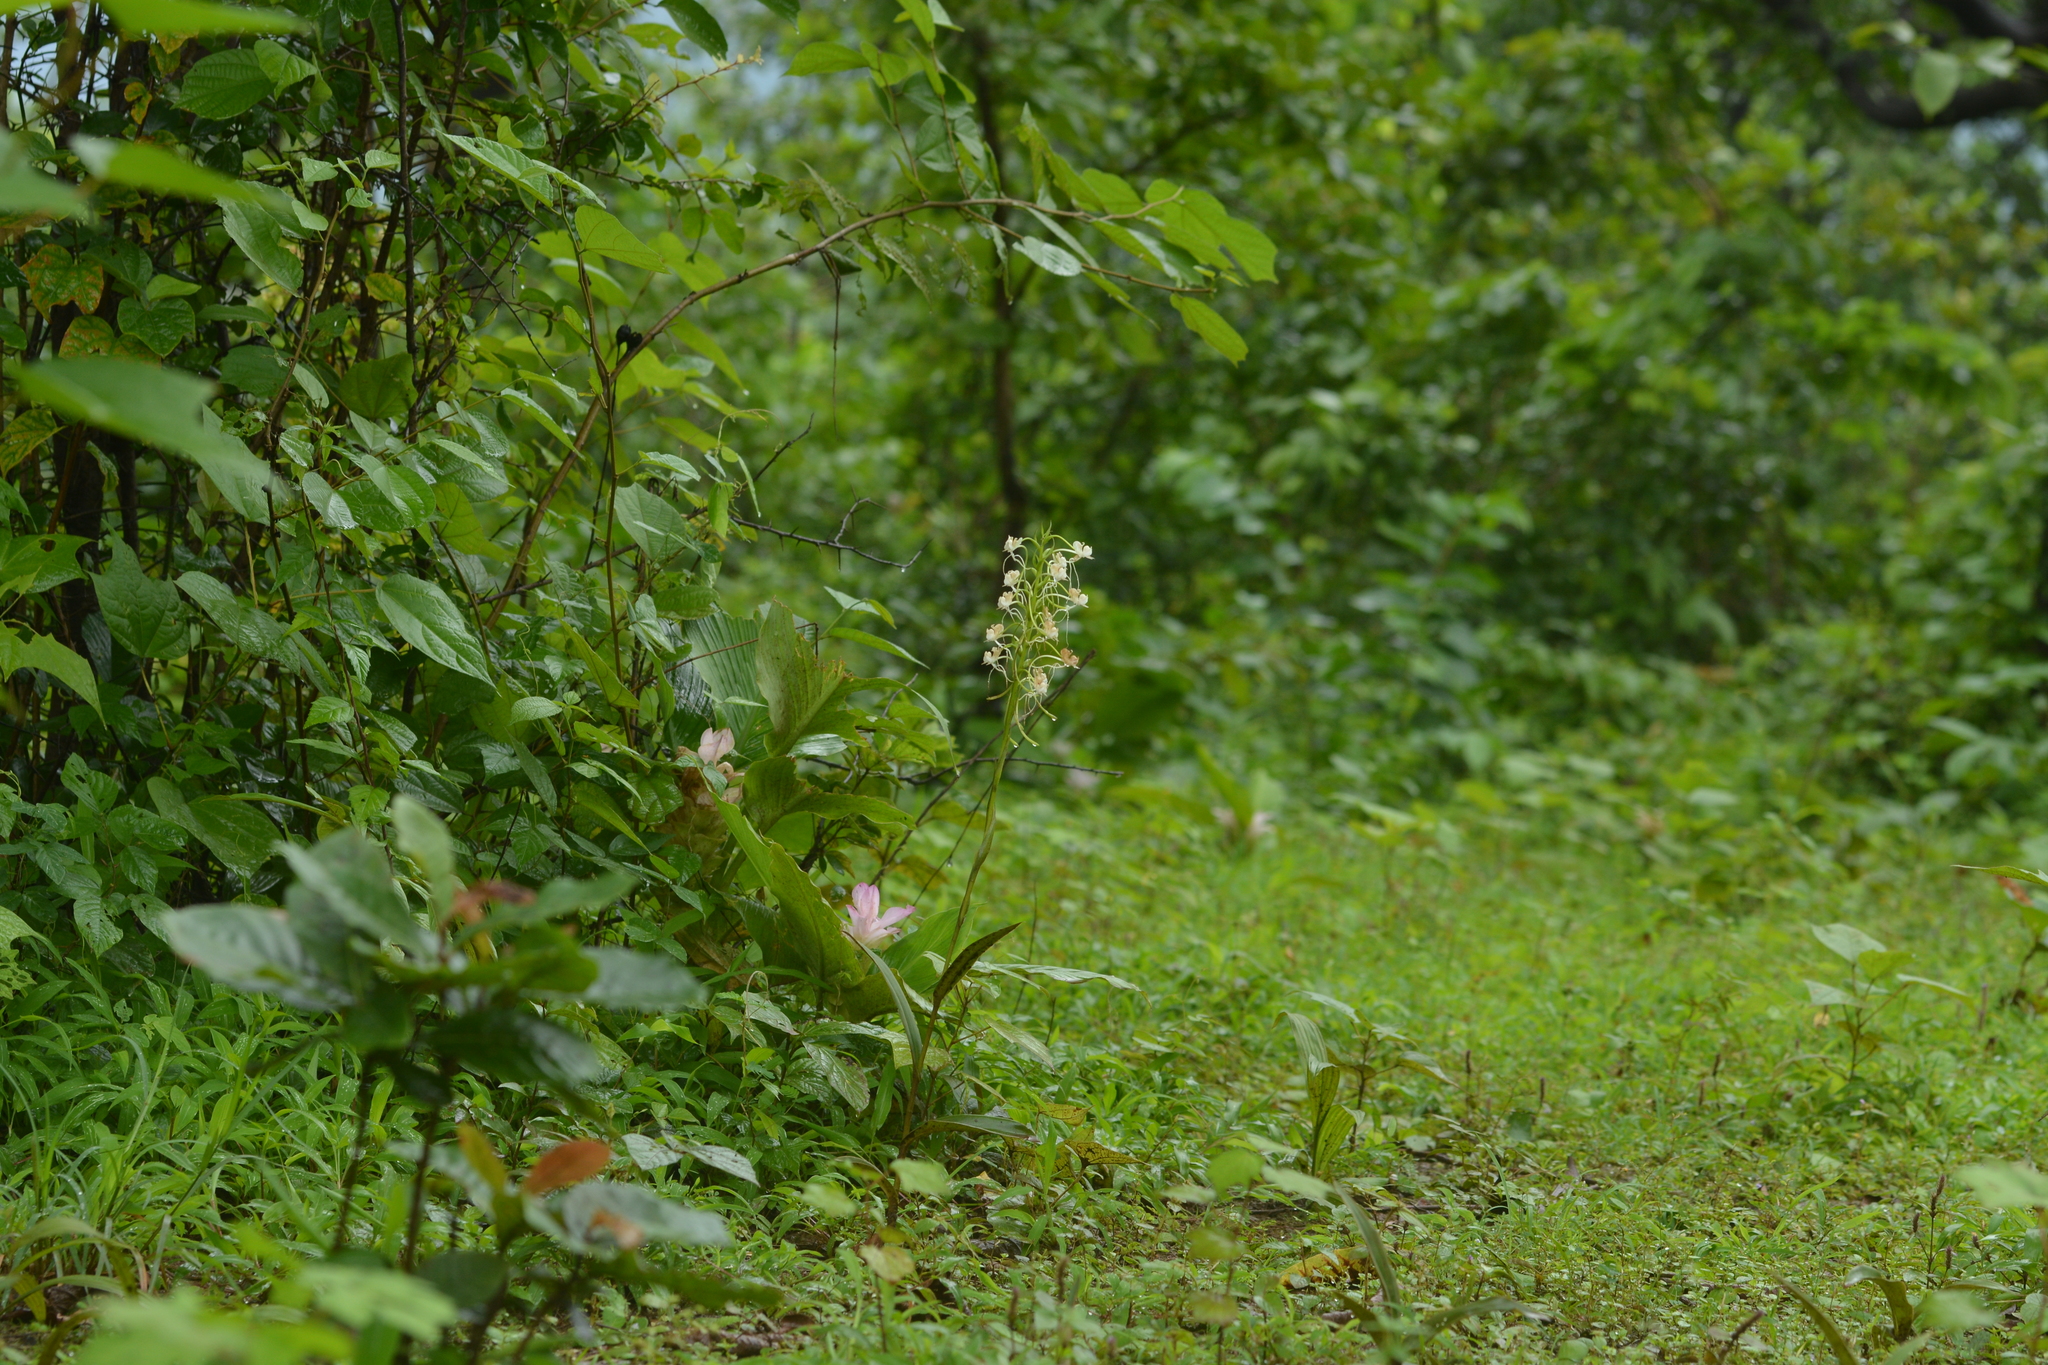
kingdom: Plantae
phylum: Tracheophyta
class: Liliopsida
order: Asparagales
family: Orchidaceae
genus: Habenaria
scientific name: Habenaria commelinifolia
